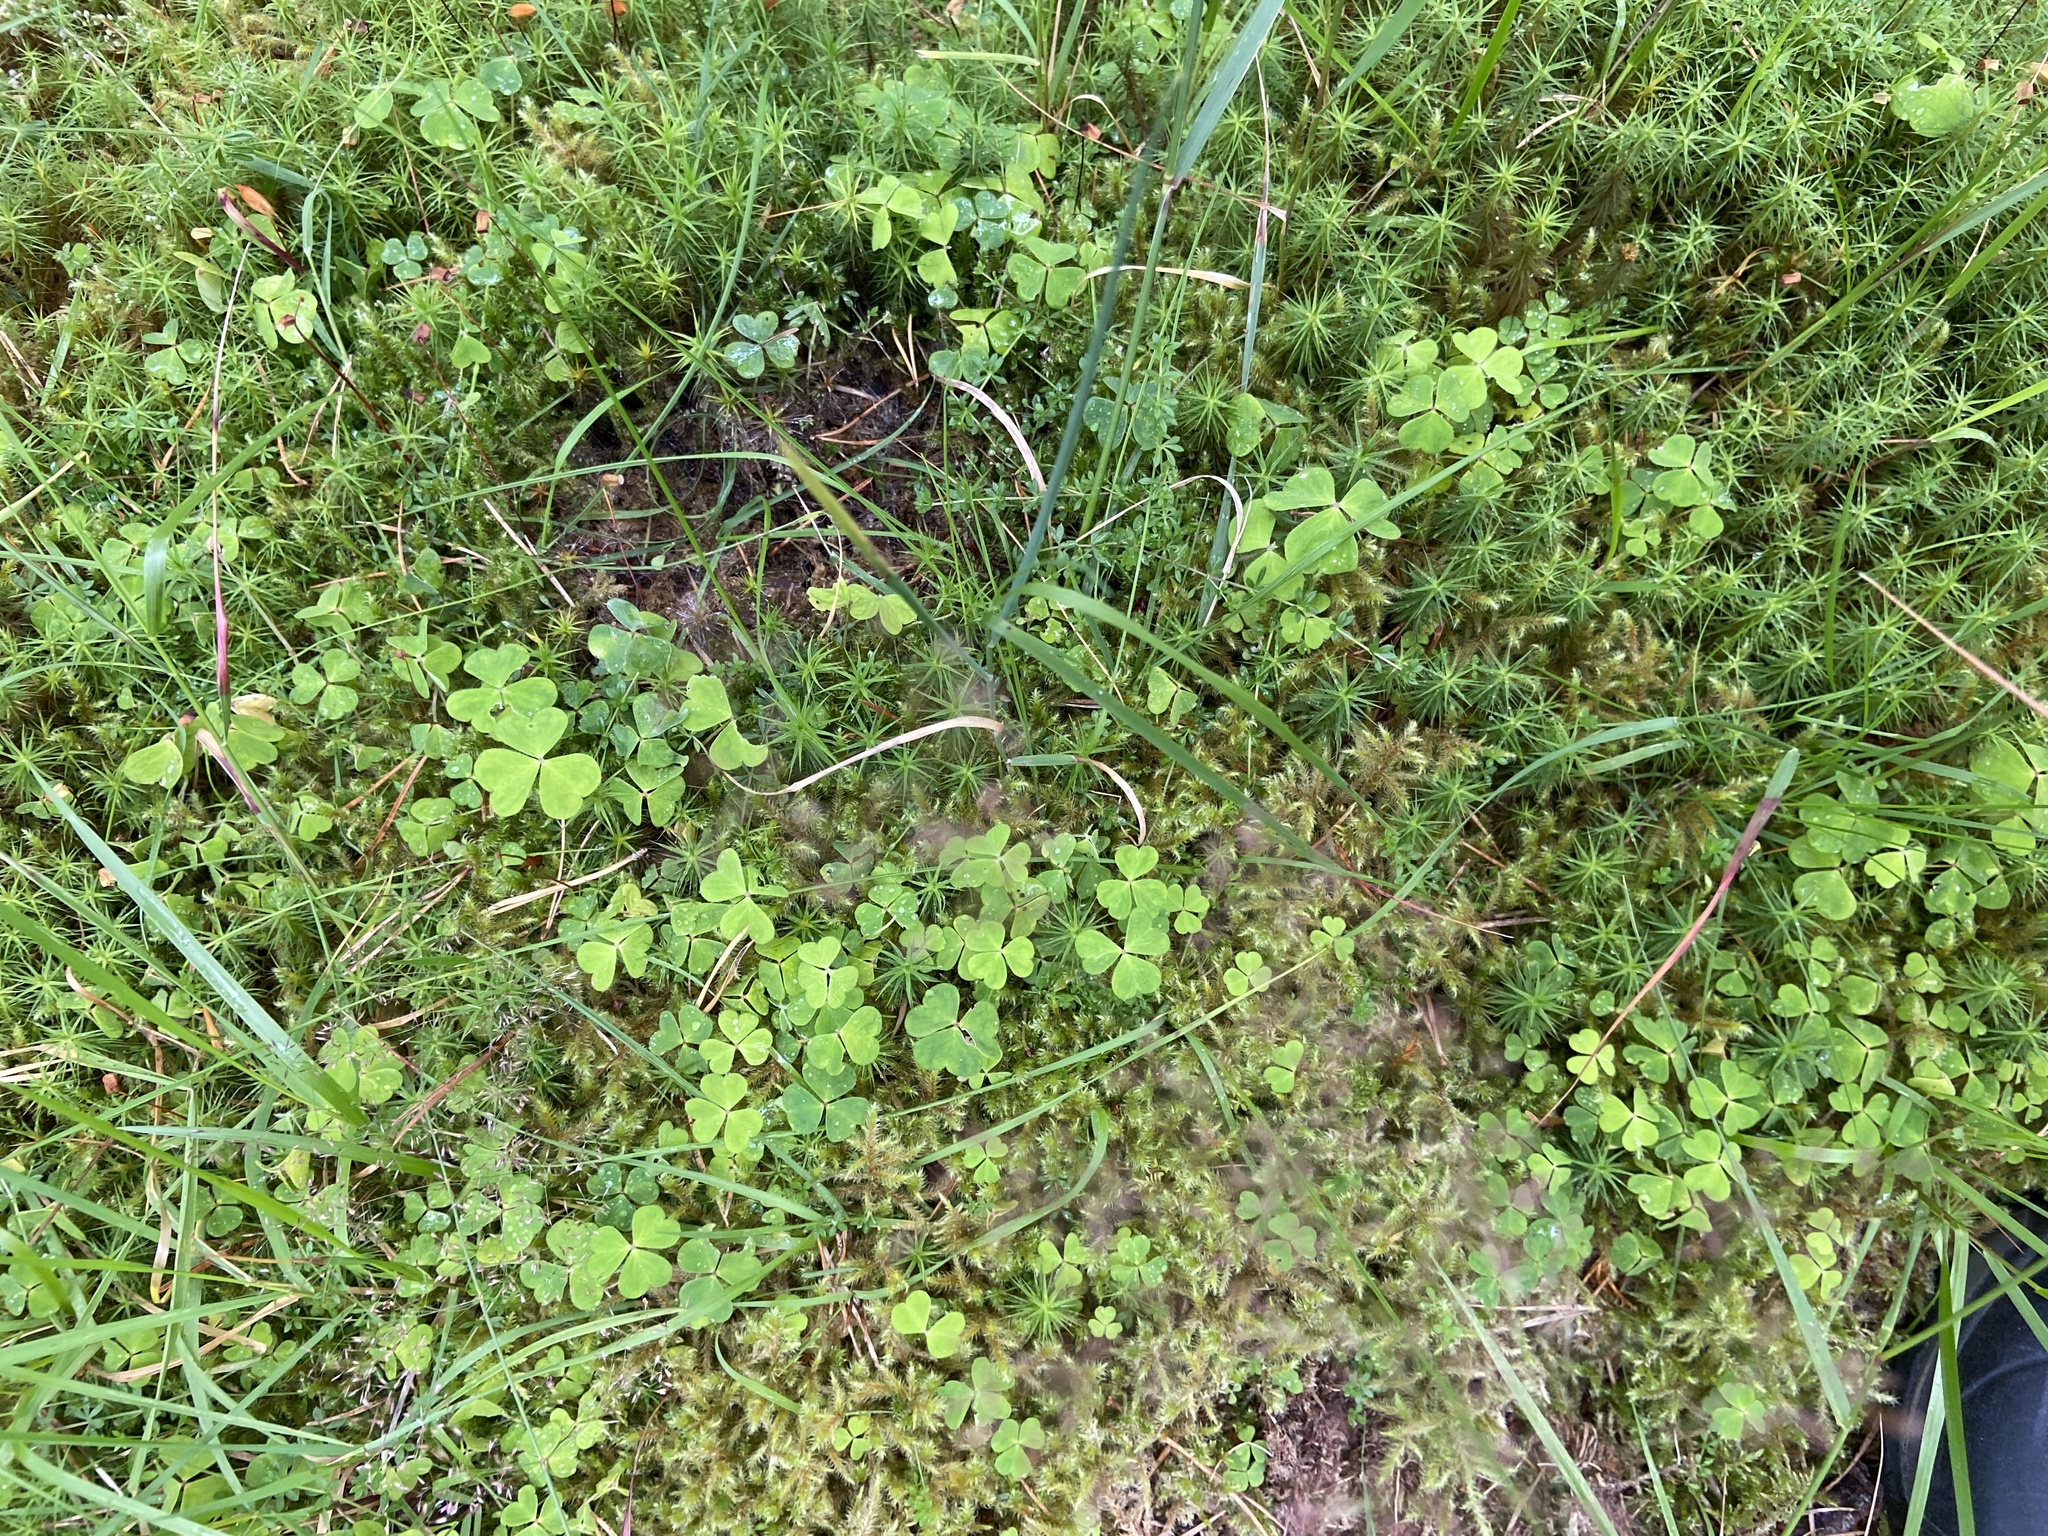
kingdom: Plantae
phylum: Tracheophyta
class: Magnoliopsida
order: Oxalidales
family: Oxalidaceae
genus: Oxalis
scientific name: Oxalis acetosella
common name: Wood-sorrel
